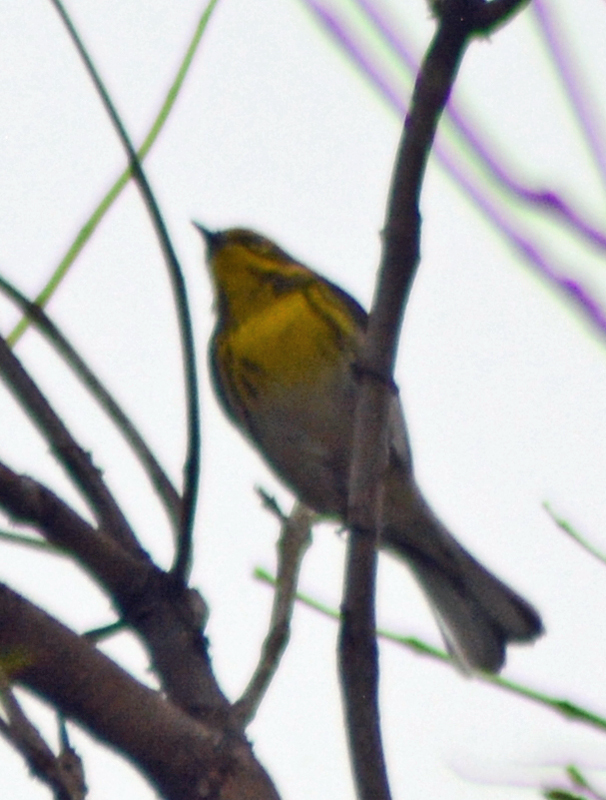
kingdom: Animalia
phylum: Chordata
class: Aves
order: Passeriformes
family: Parulidae
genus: Setophaga
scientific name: Setophaga townsendi
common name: Townsend's warbler
